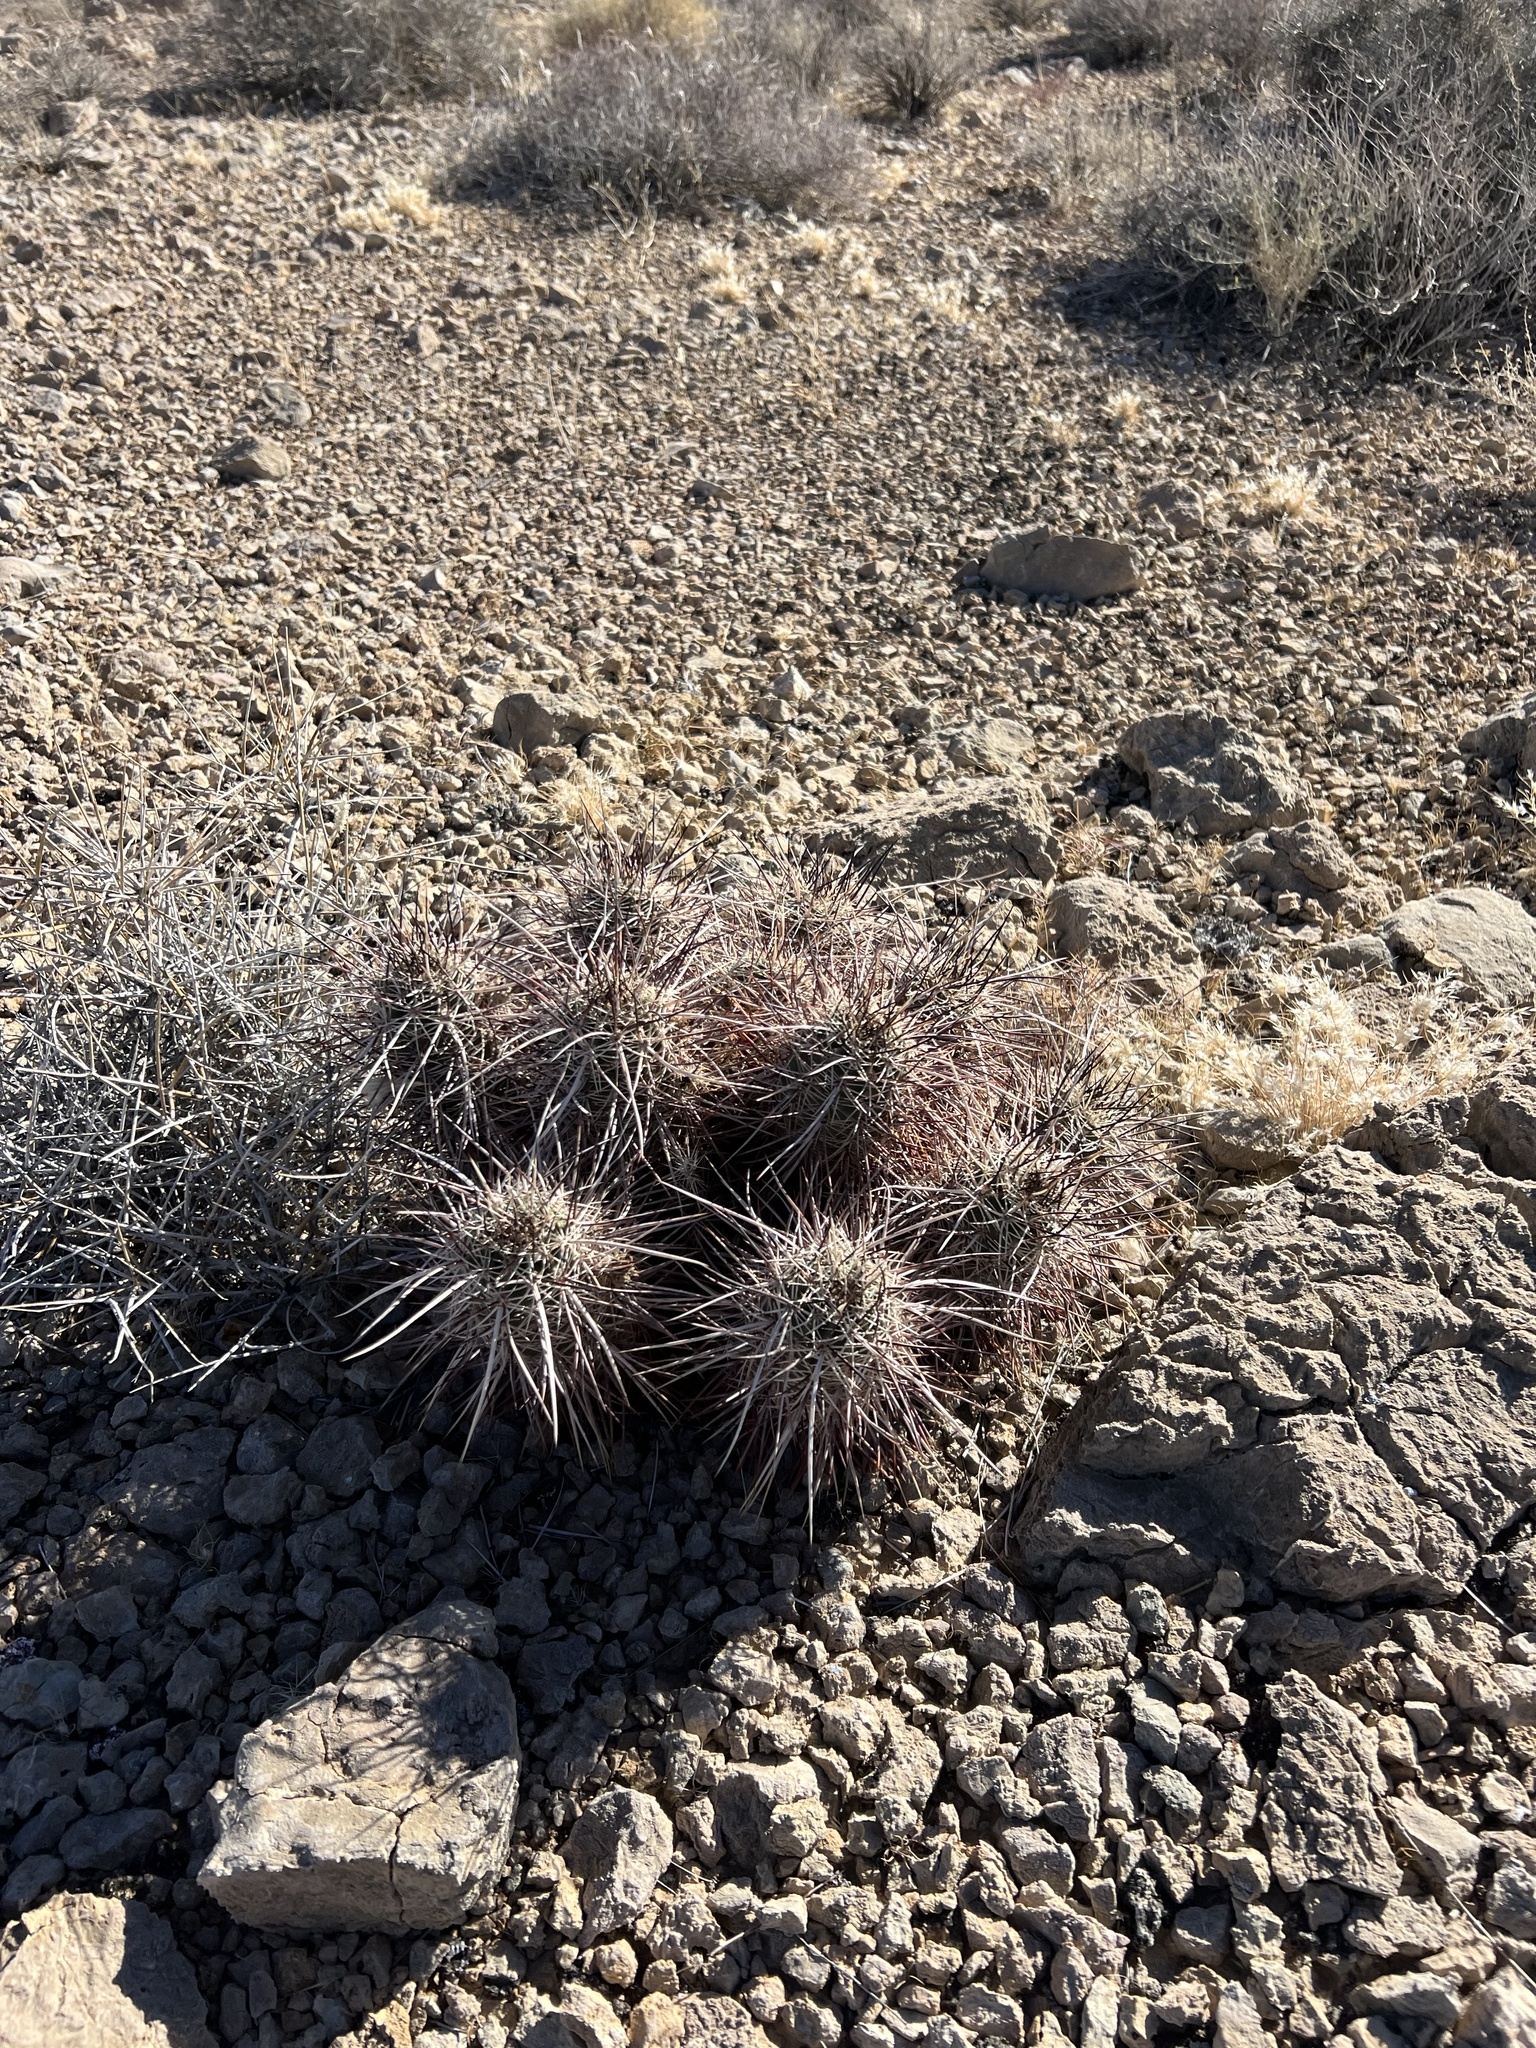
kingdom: Plantae
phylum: Tracheophyta
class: Magnoliopsida
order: Caryophyllales
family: Cactaceae
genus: Echinocereus
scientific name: Echinocereus engelmannii
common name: Engelmann's hedgehog cactus
